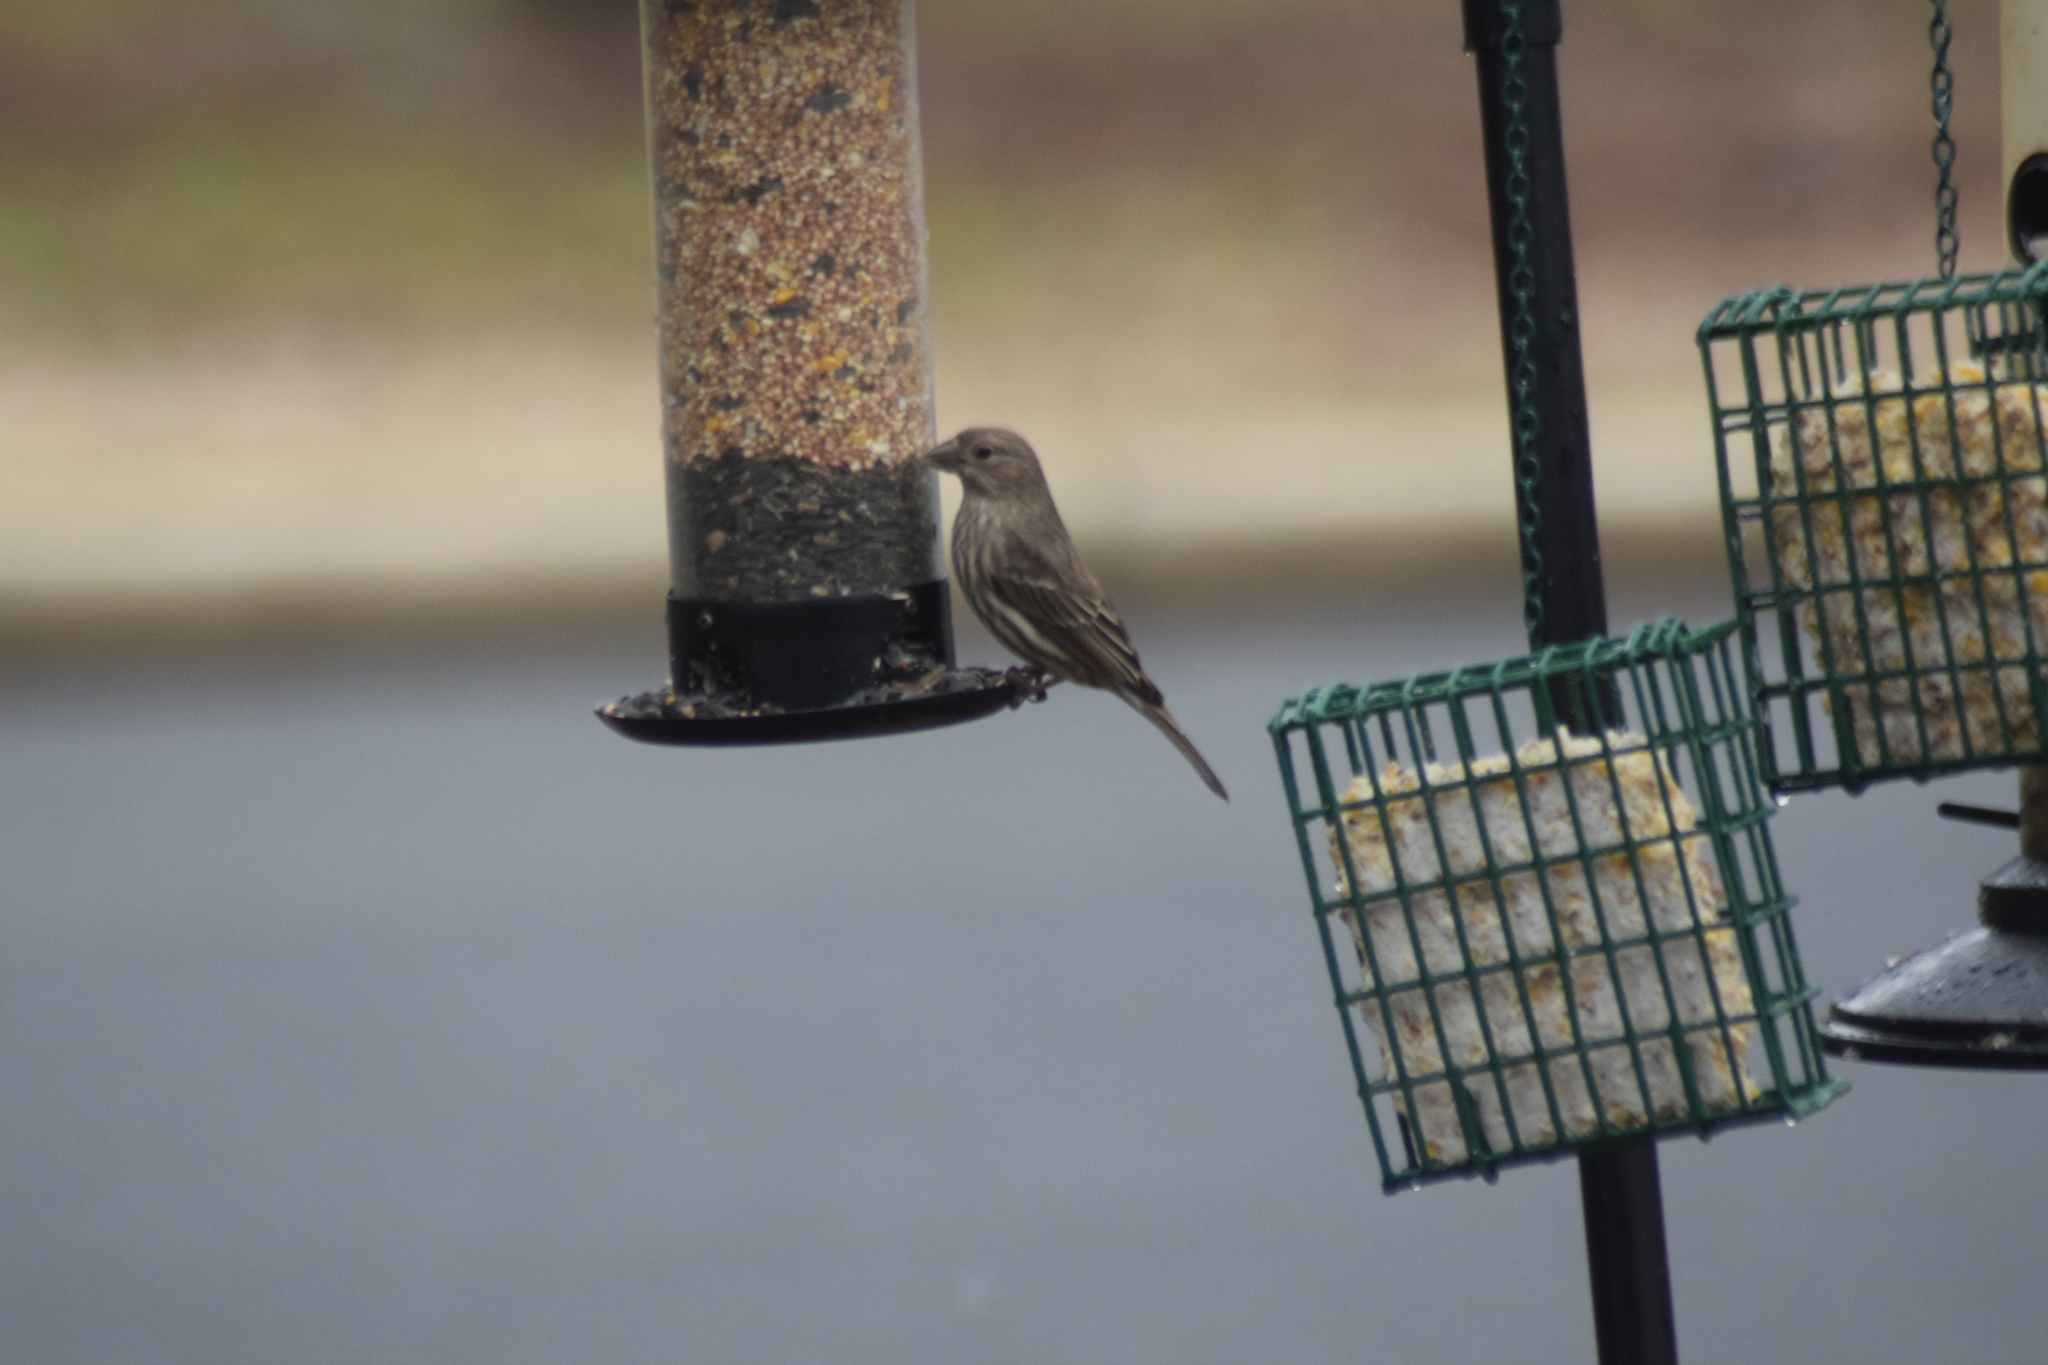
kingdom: Animalia
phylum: Chordata
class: Aves
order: Passeriformes
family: Fringillidae
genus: Haemorhous
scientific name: Haemorhous mexicanus
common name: House finch
